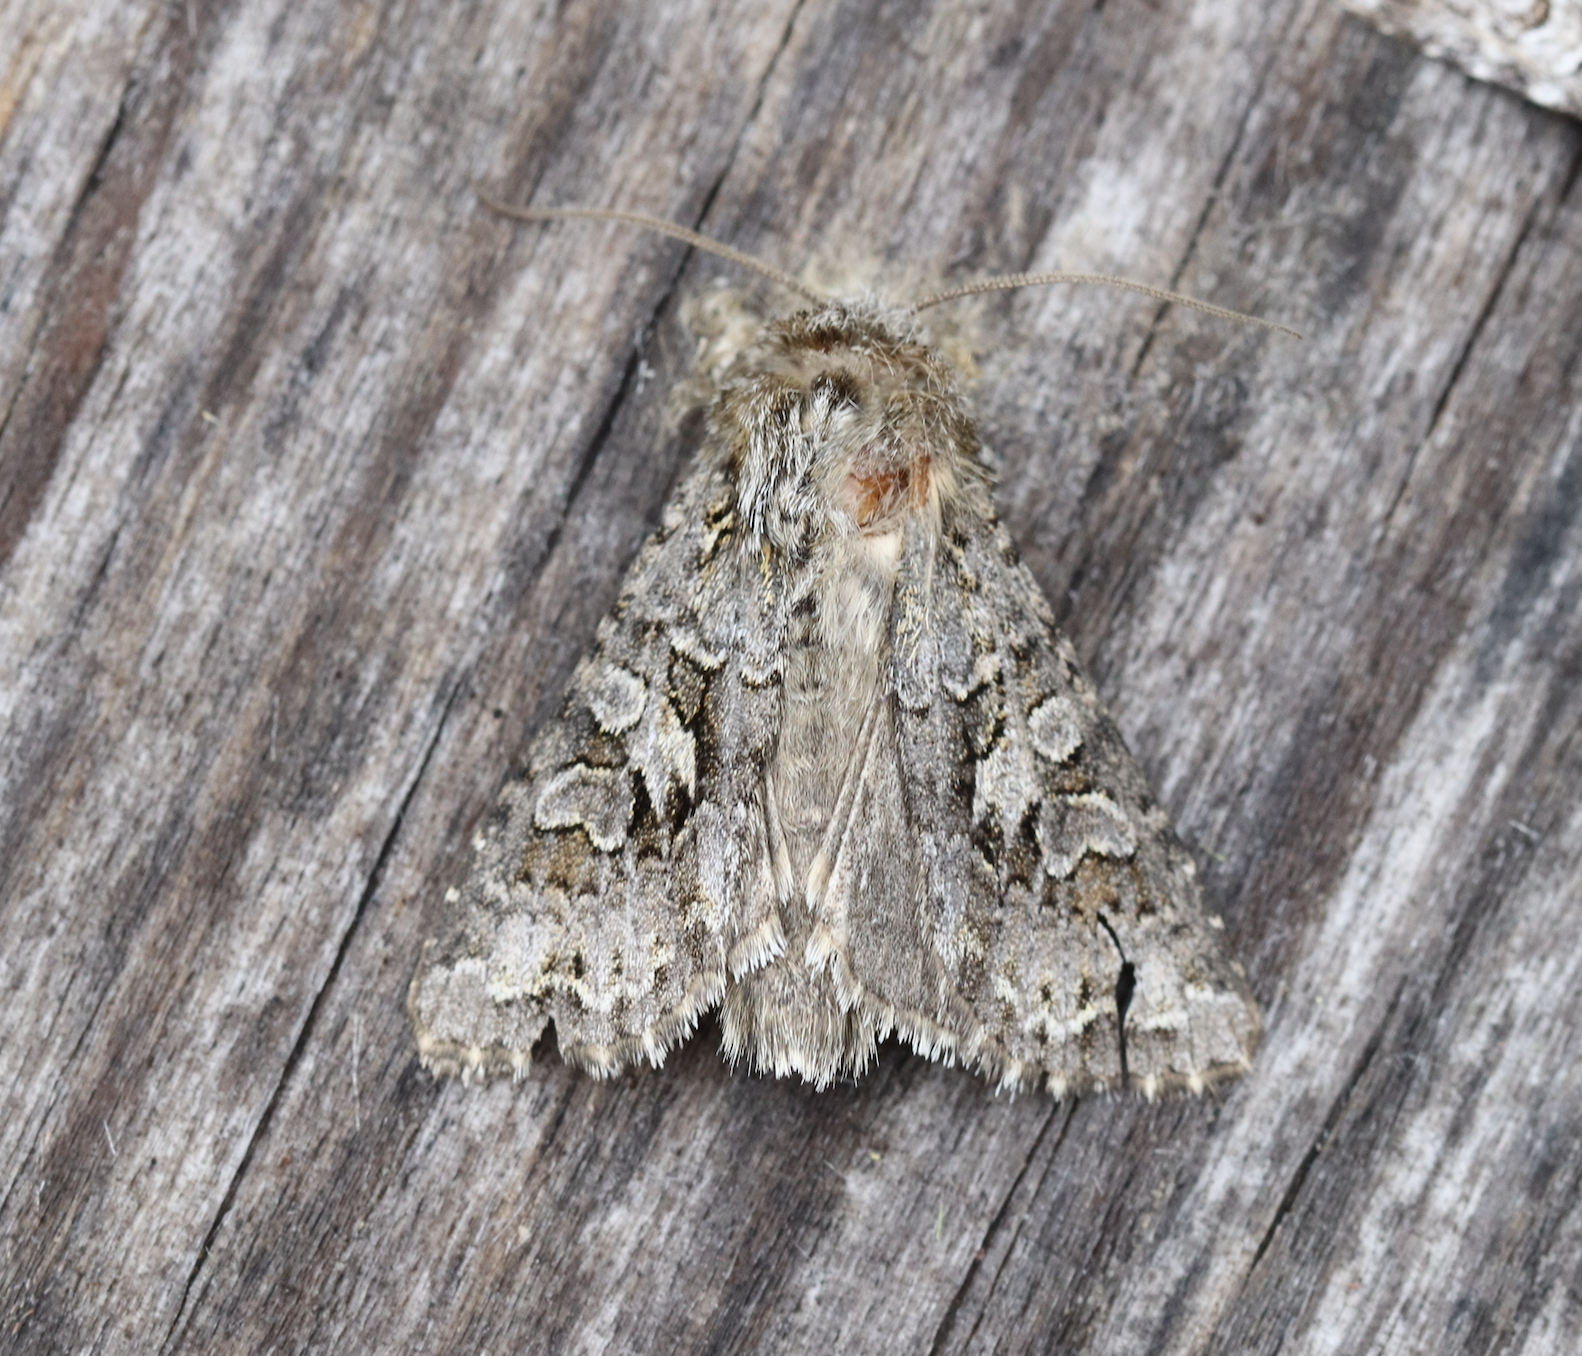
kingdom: Animalia
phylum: Arthropoda
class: Insecta
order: Lepidoptera
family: Noctuidae
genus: Hada
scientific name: Hada plebeja
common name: Shears
